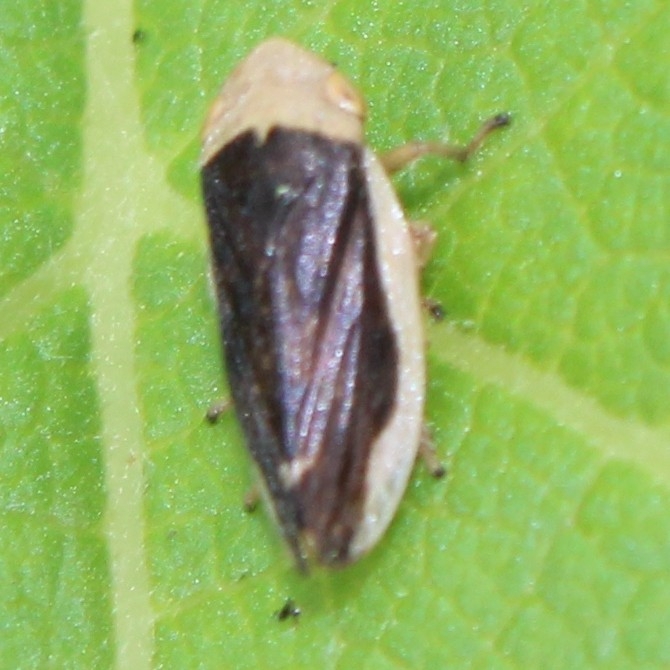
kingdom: Animalia
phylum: Arthropoda
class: Insecta
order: Hemiptera
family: Aphrophoridae
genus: Philaenus
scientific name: Philaenus spumarius
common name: Meadow spittlebug
